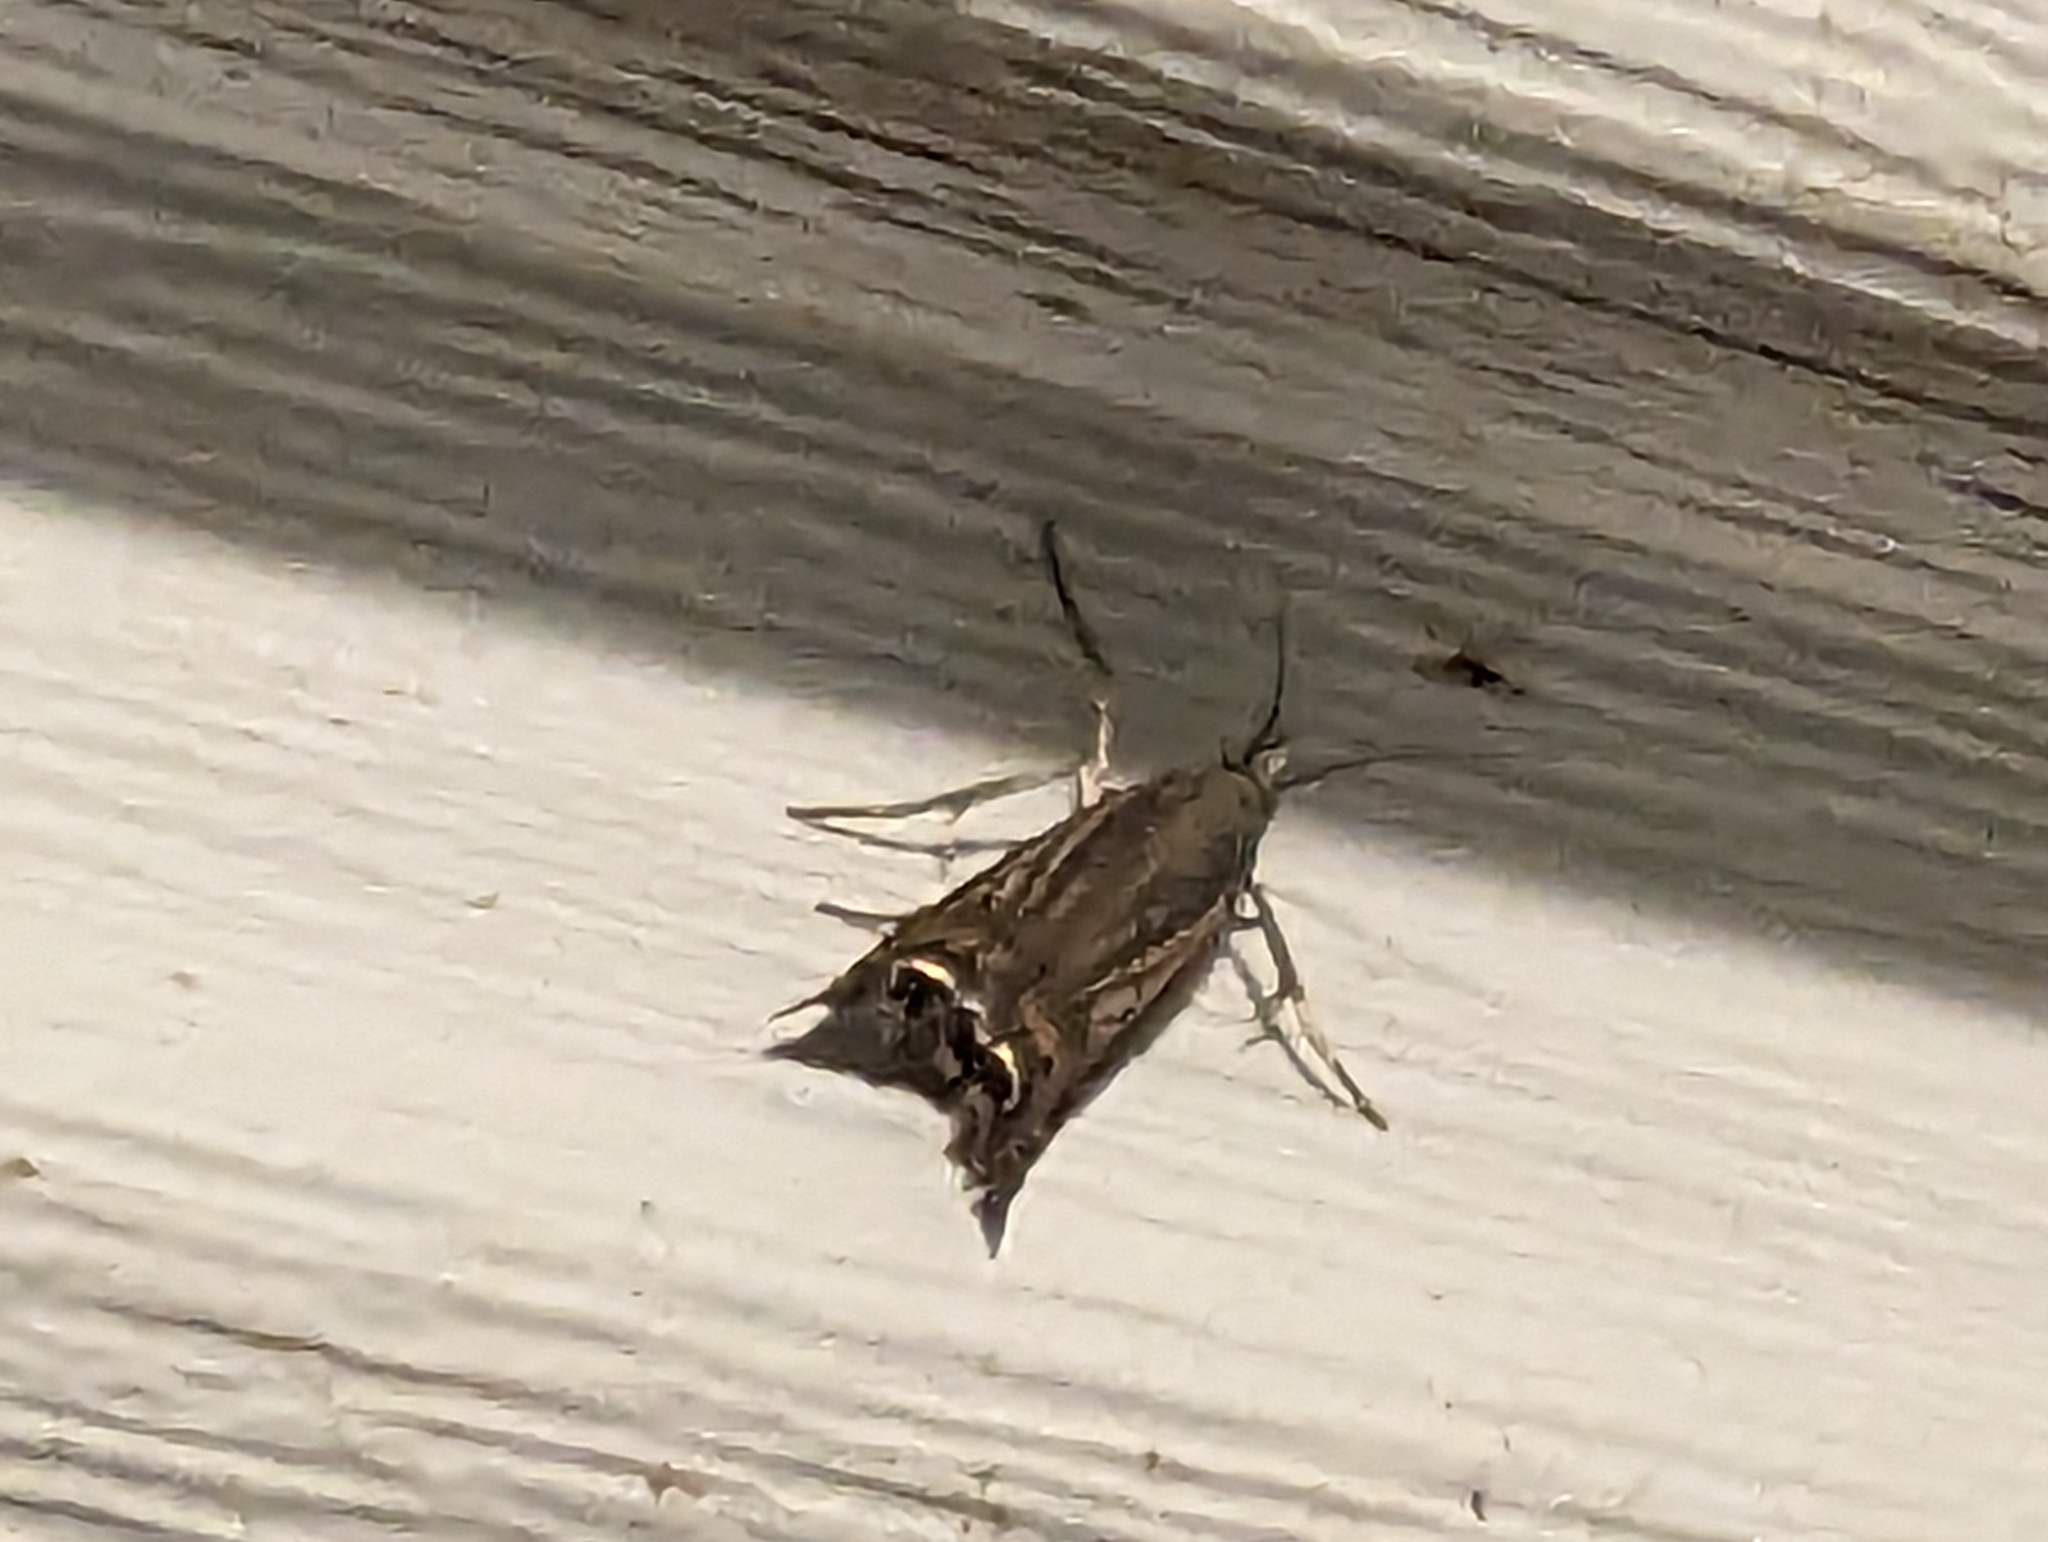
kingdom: Animalia
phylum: Arthropoda
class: Insecta
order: Lepidoptera
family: Crambidae
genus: Chrysoteuchia
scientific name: Chrysoteuchia topiarius
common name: Topiary grass-veneer
